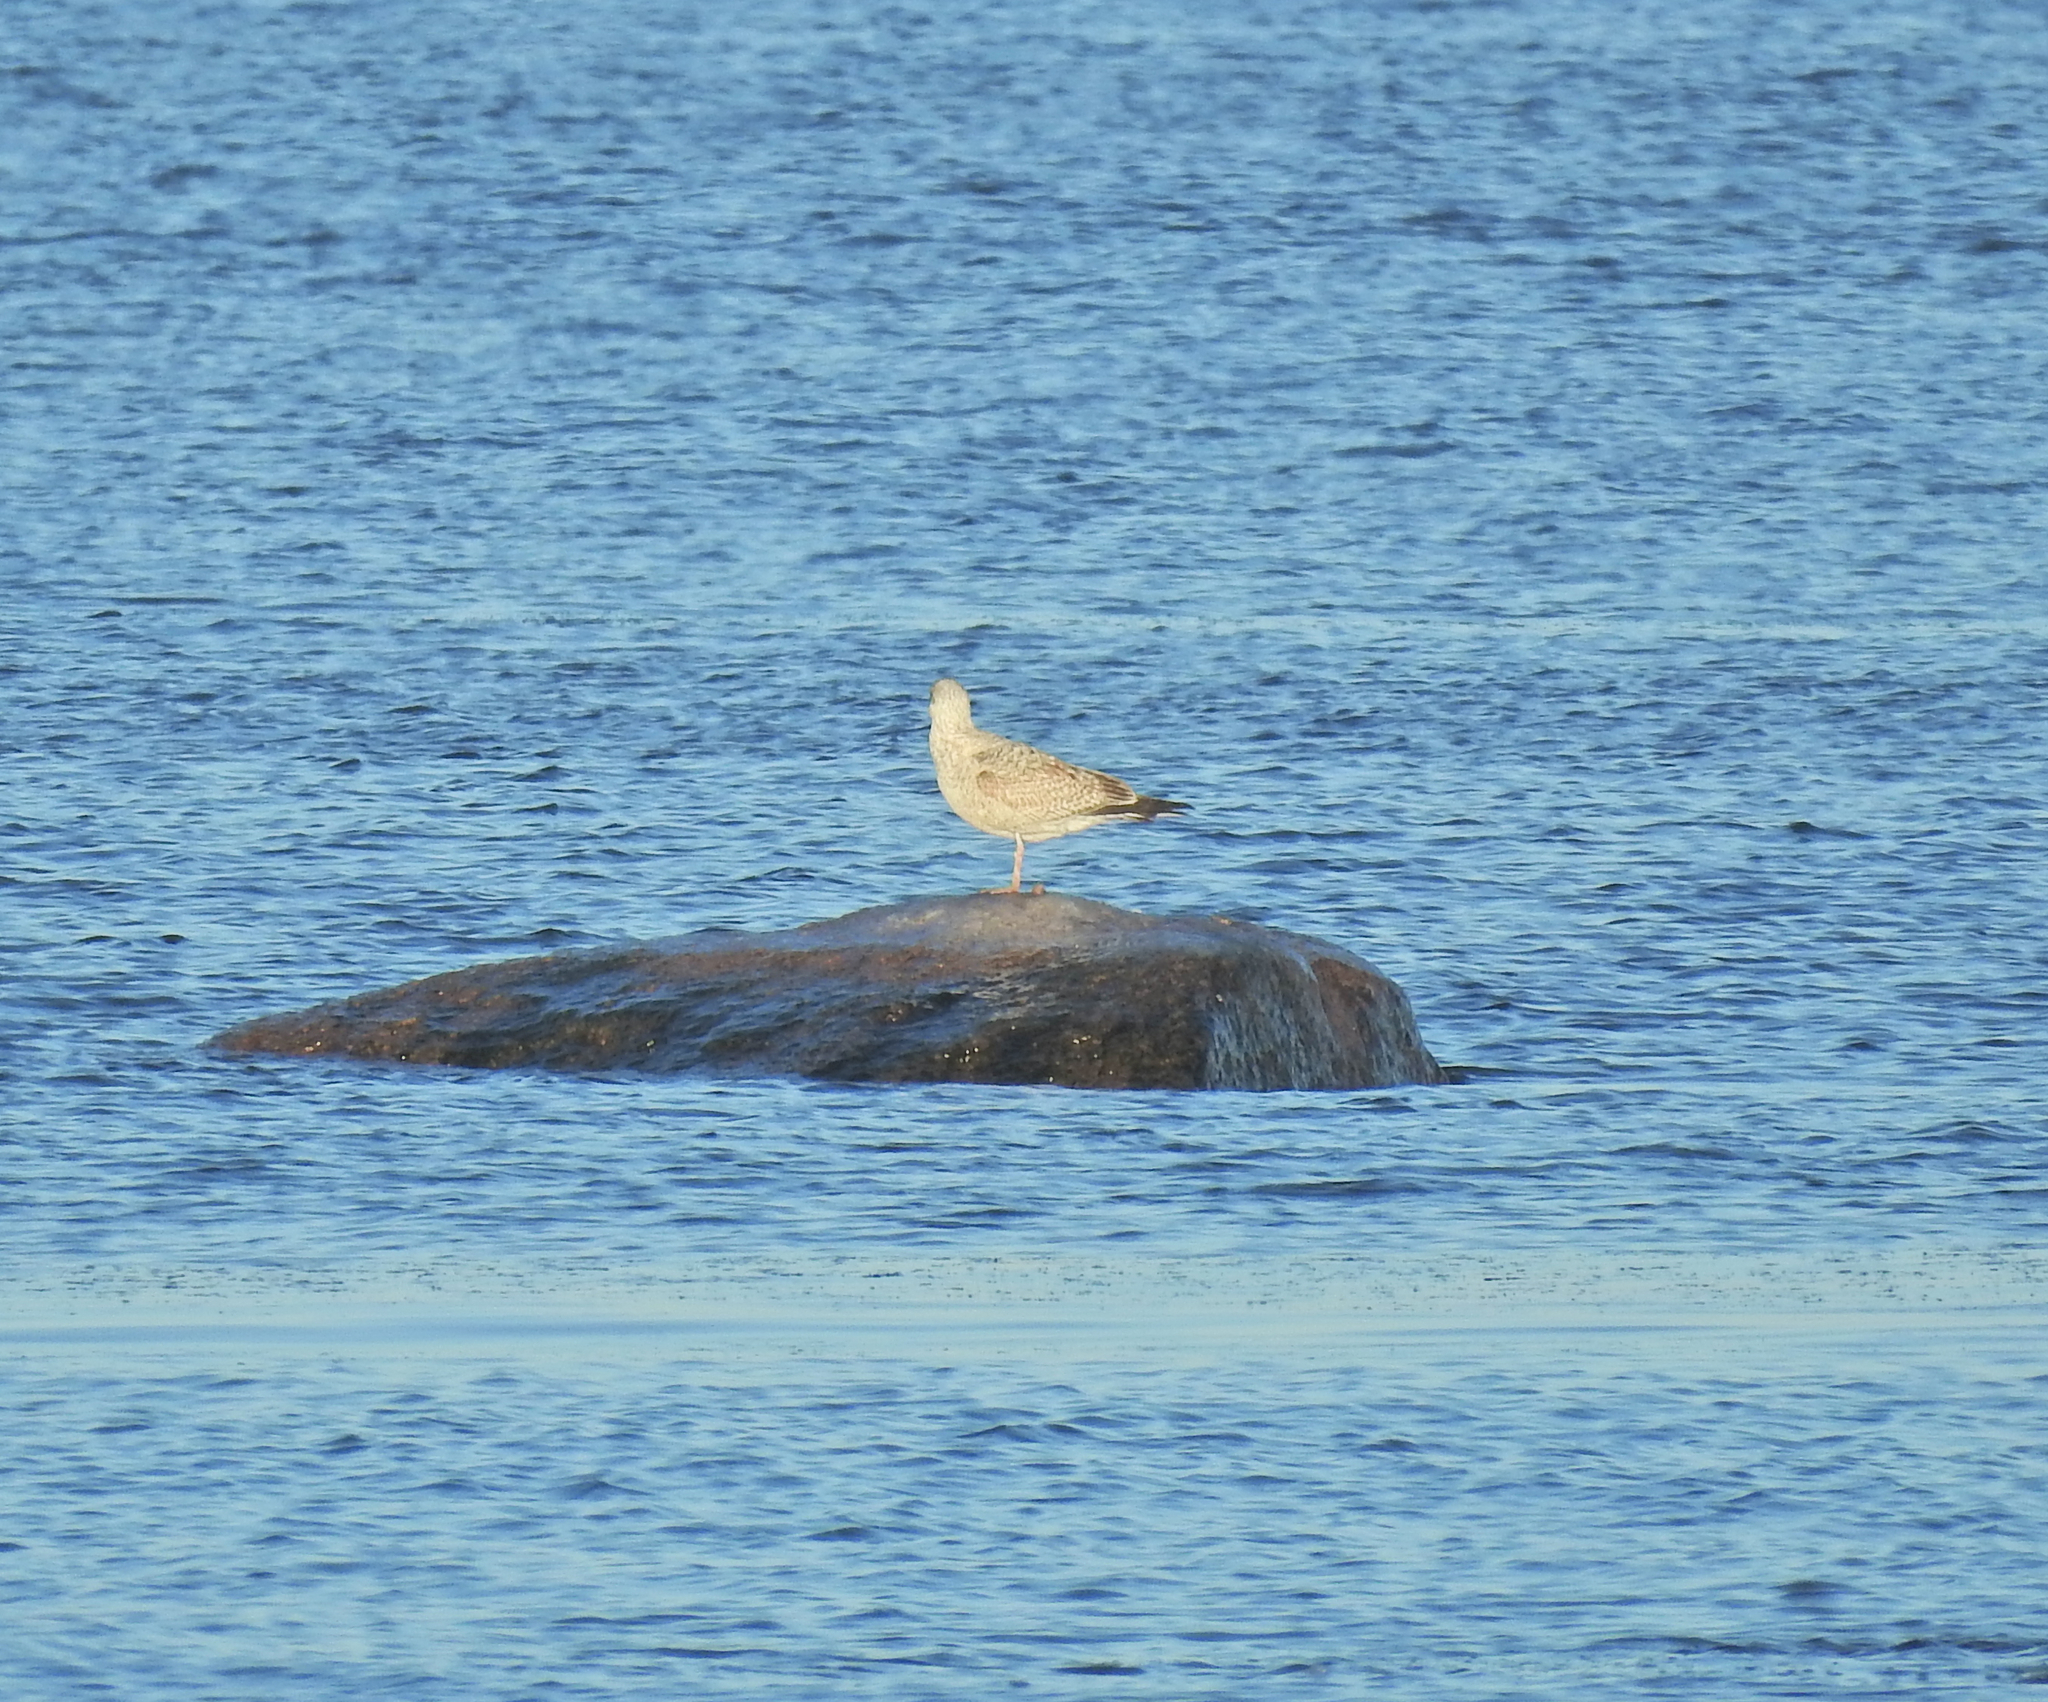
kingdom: Animalia
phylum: Chordata
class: Aves
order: Charadriiformes
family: Laridae
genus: Larus
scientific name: Larus argentatus
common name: Herring gull
